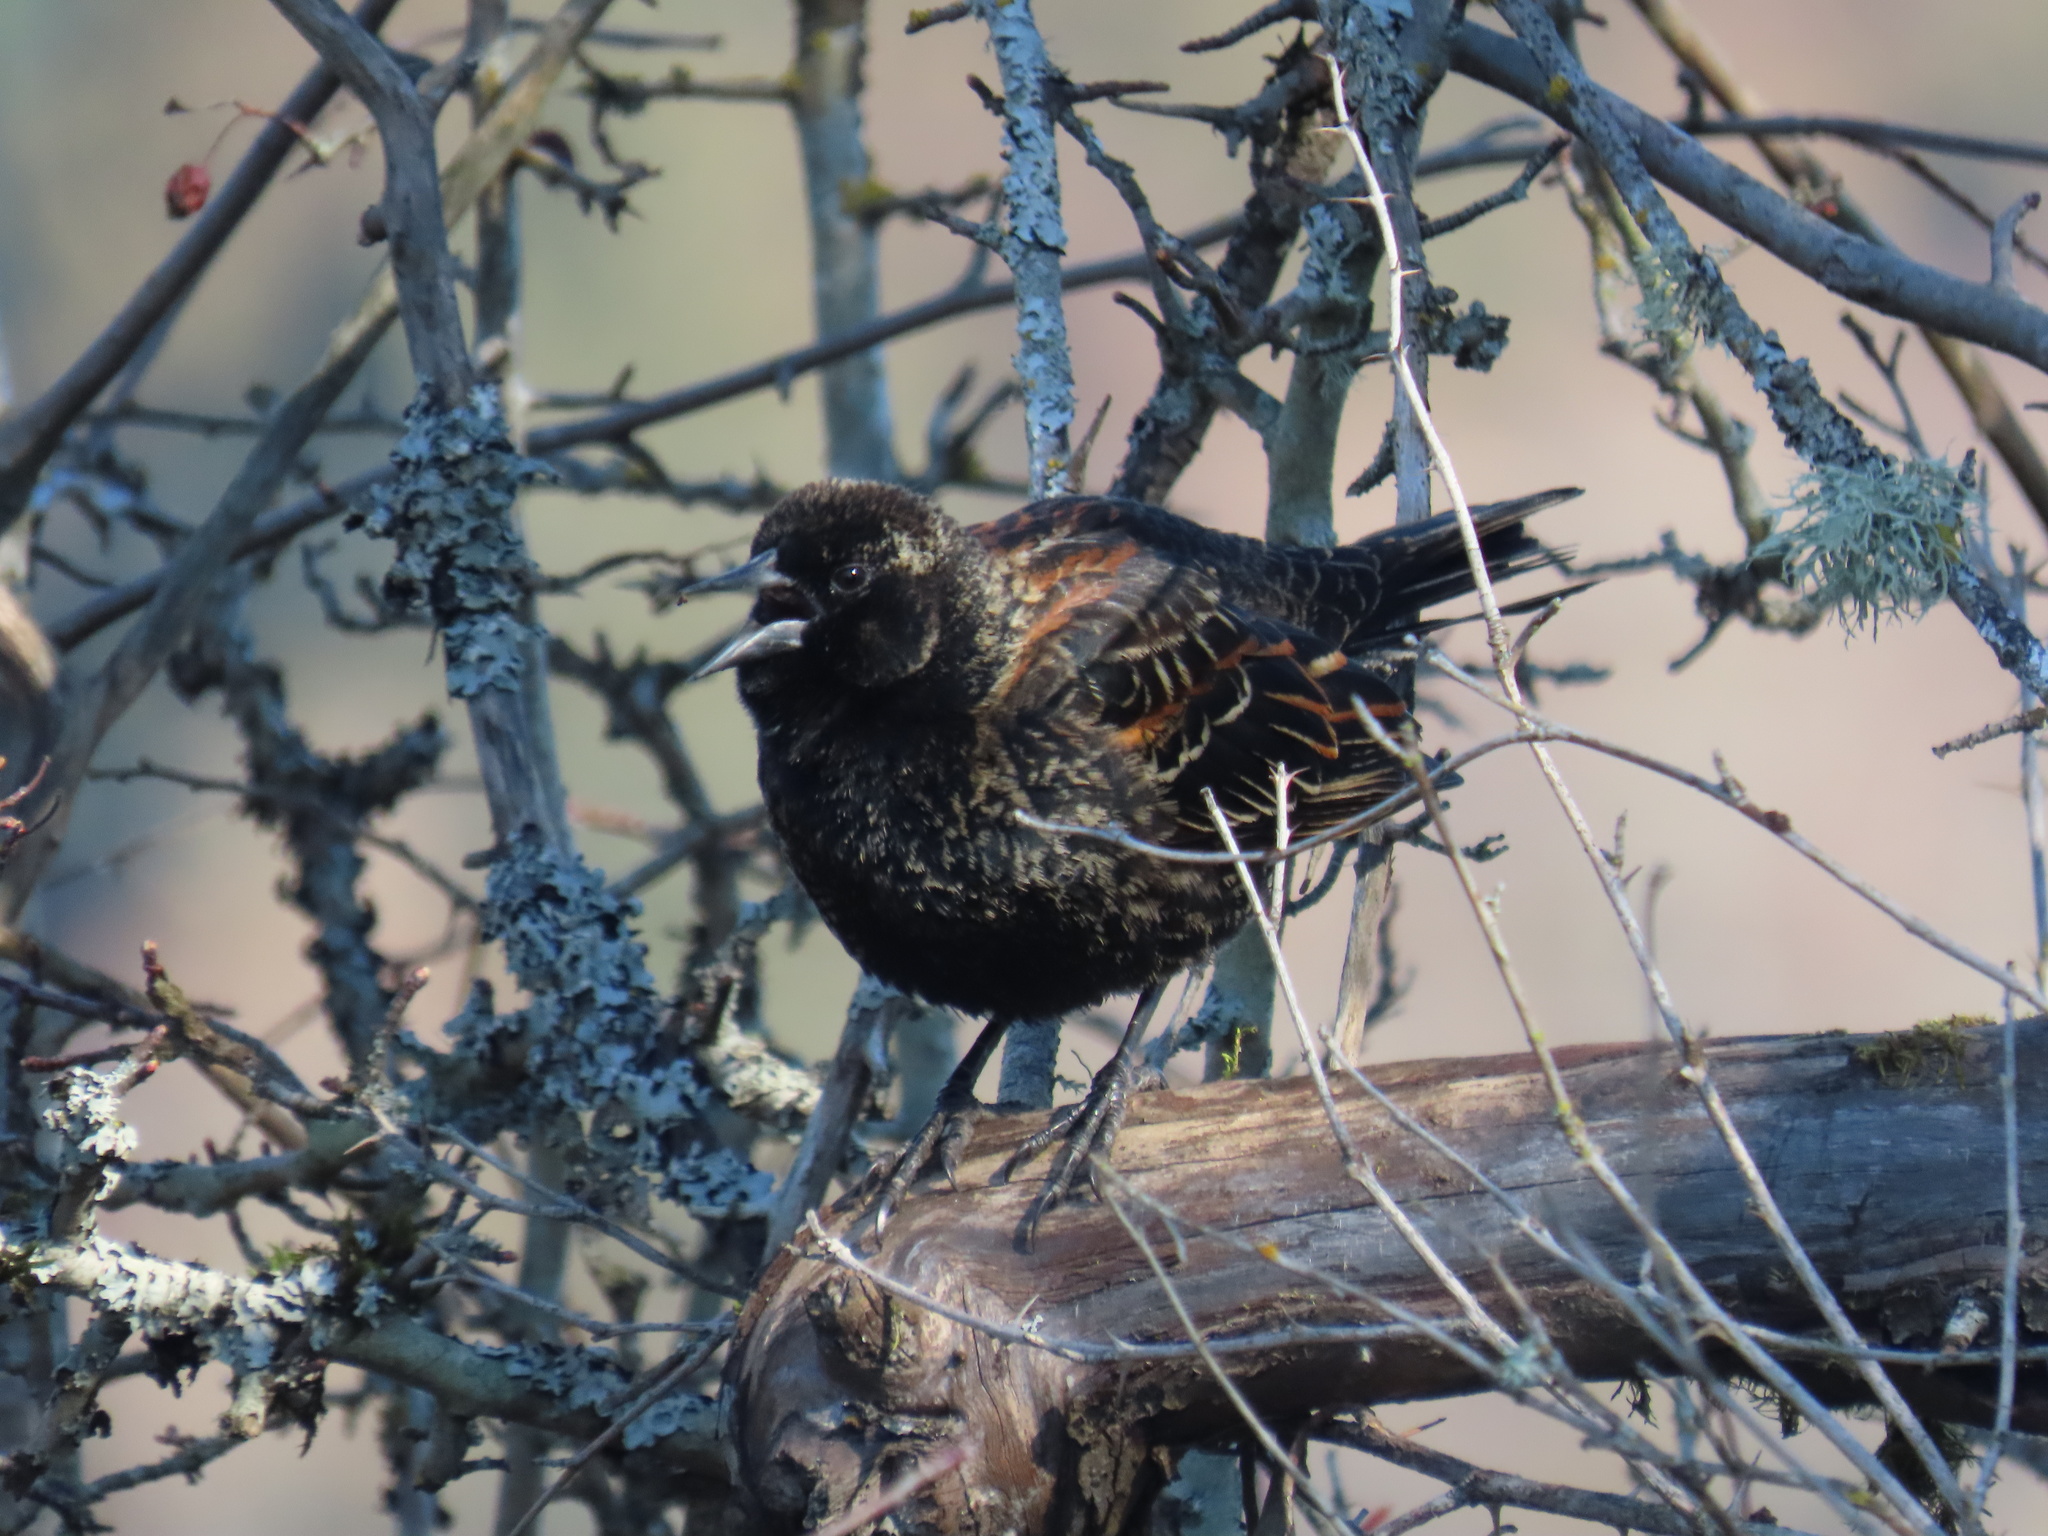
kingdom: Animalia
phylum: Chordata
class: Aves
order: Passeriformes
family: Icteridae
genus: Agelaius
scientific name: Agelaius phoeniceus
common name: Red-winged blackbird
